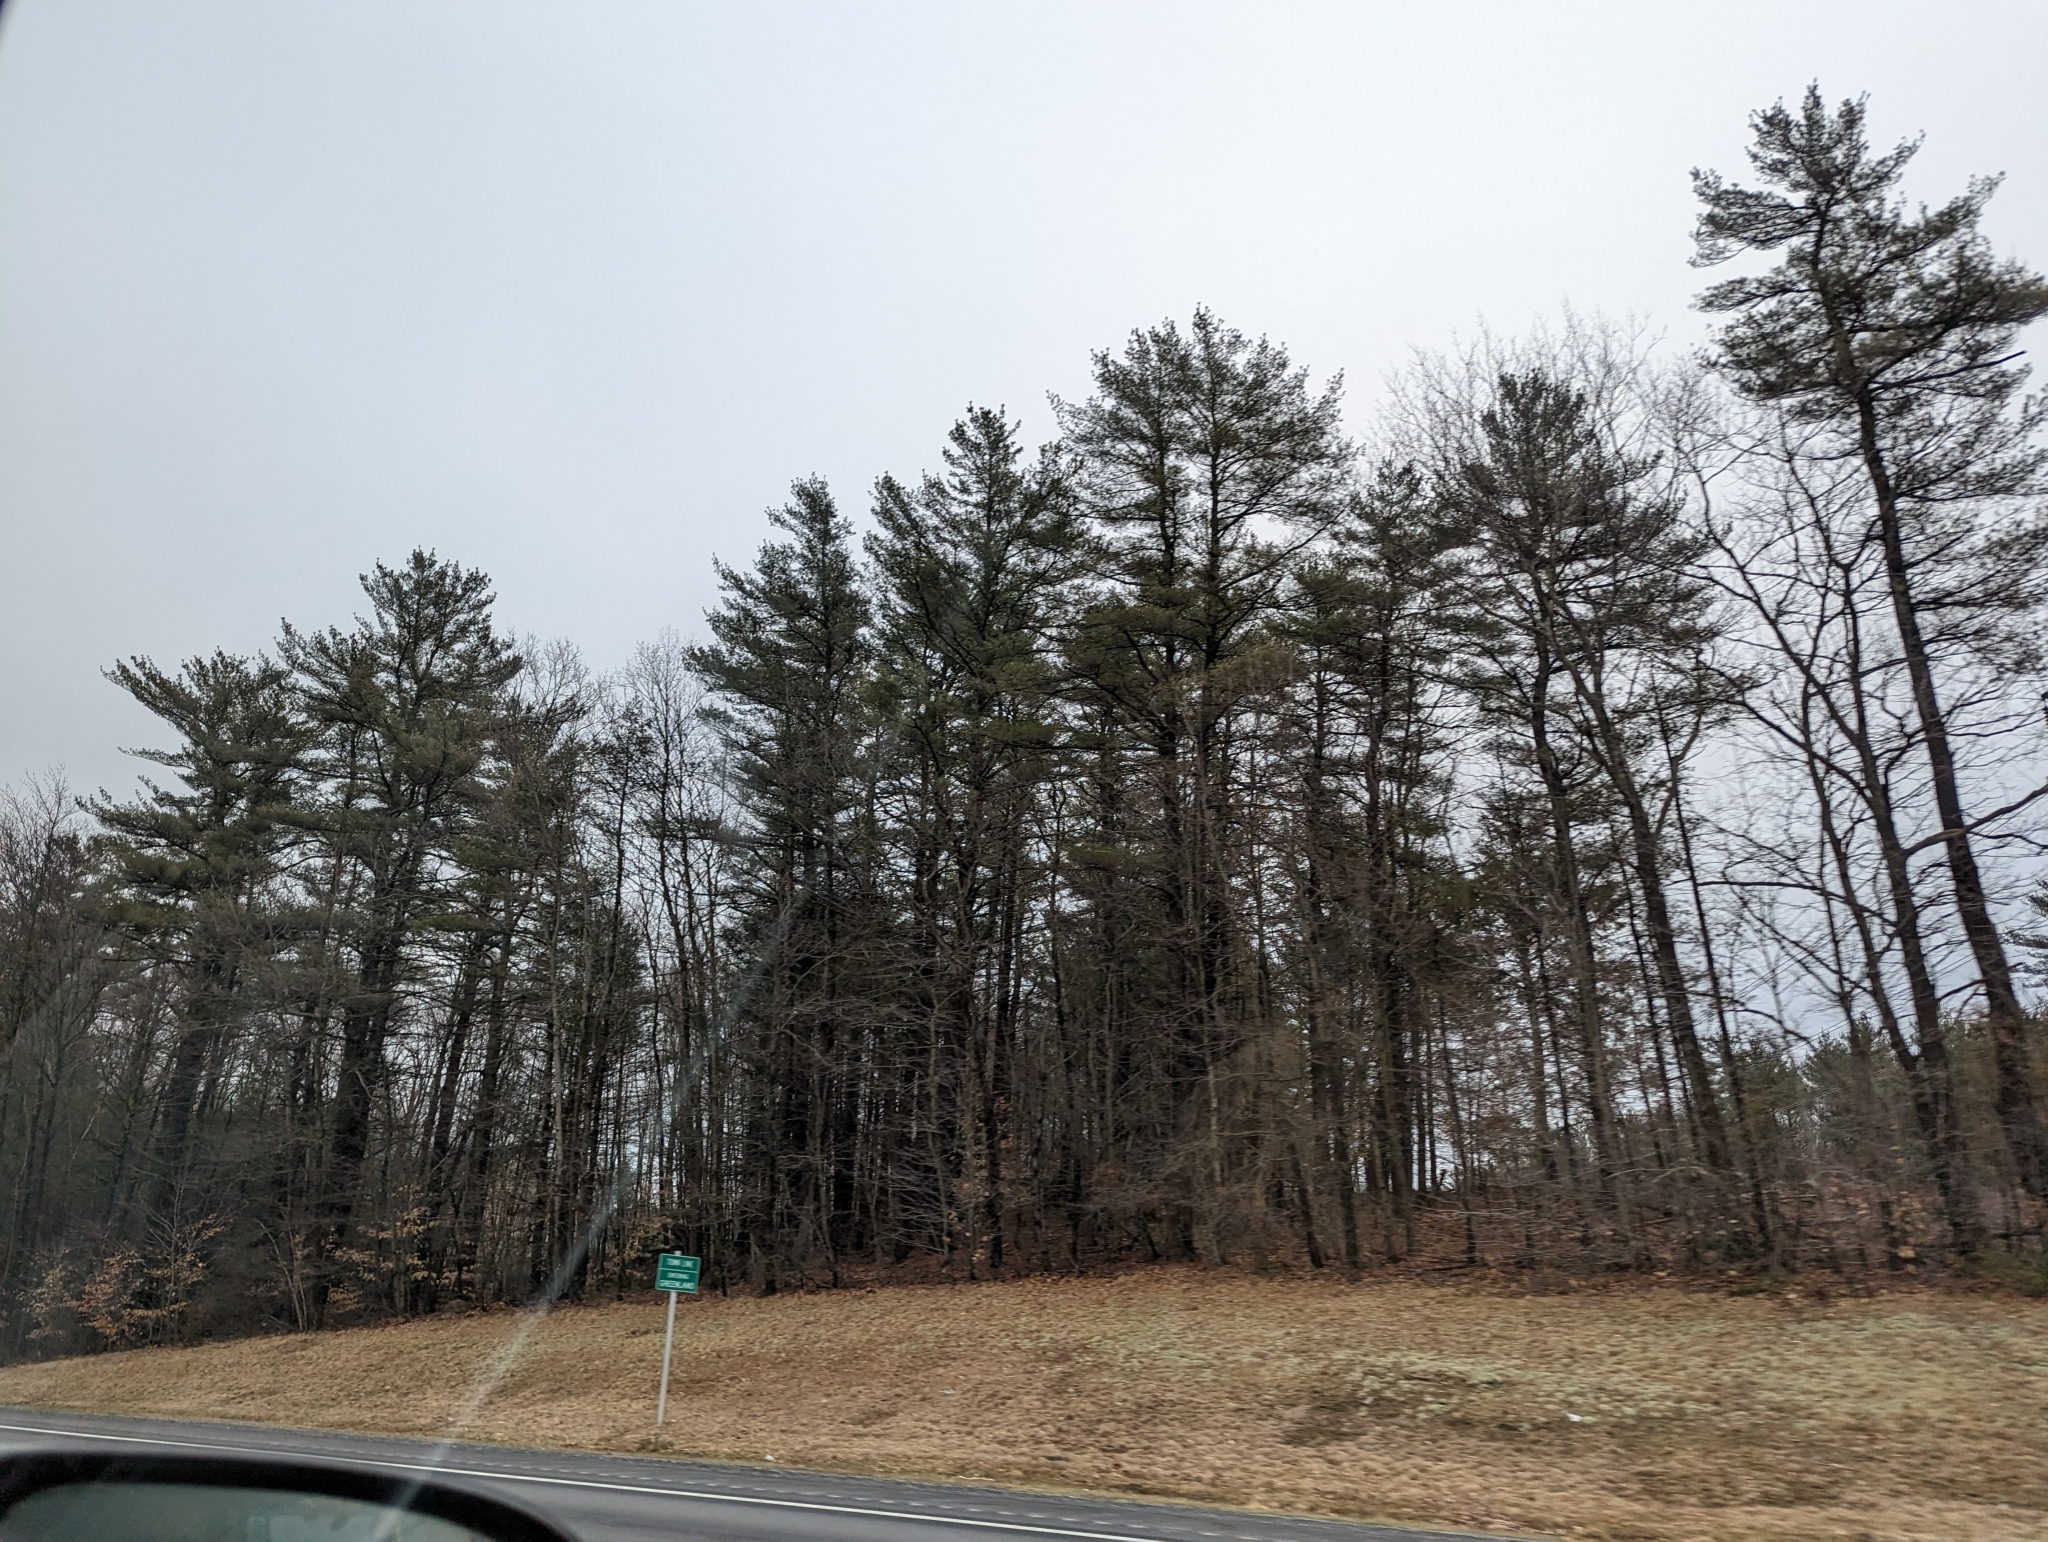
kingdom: Plantae
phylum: Tracheophyta
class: Pinopsida
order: Pinales
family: Pinaceae
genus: Pinus
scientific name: Pinus strobus
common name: Weymouth pine
